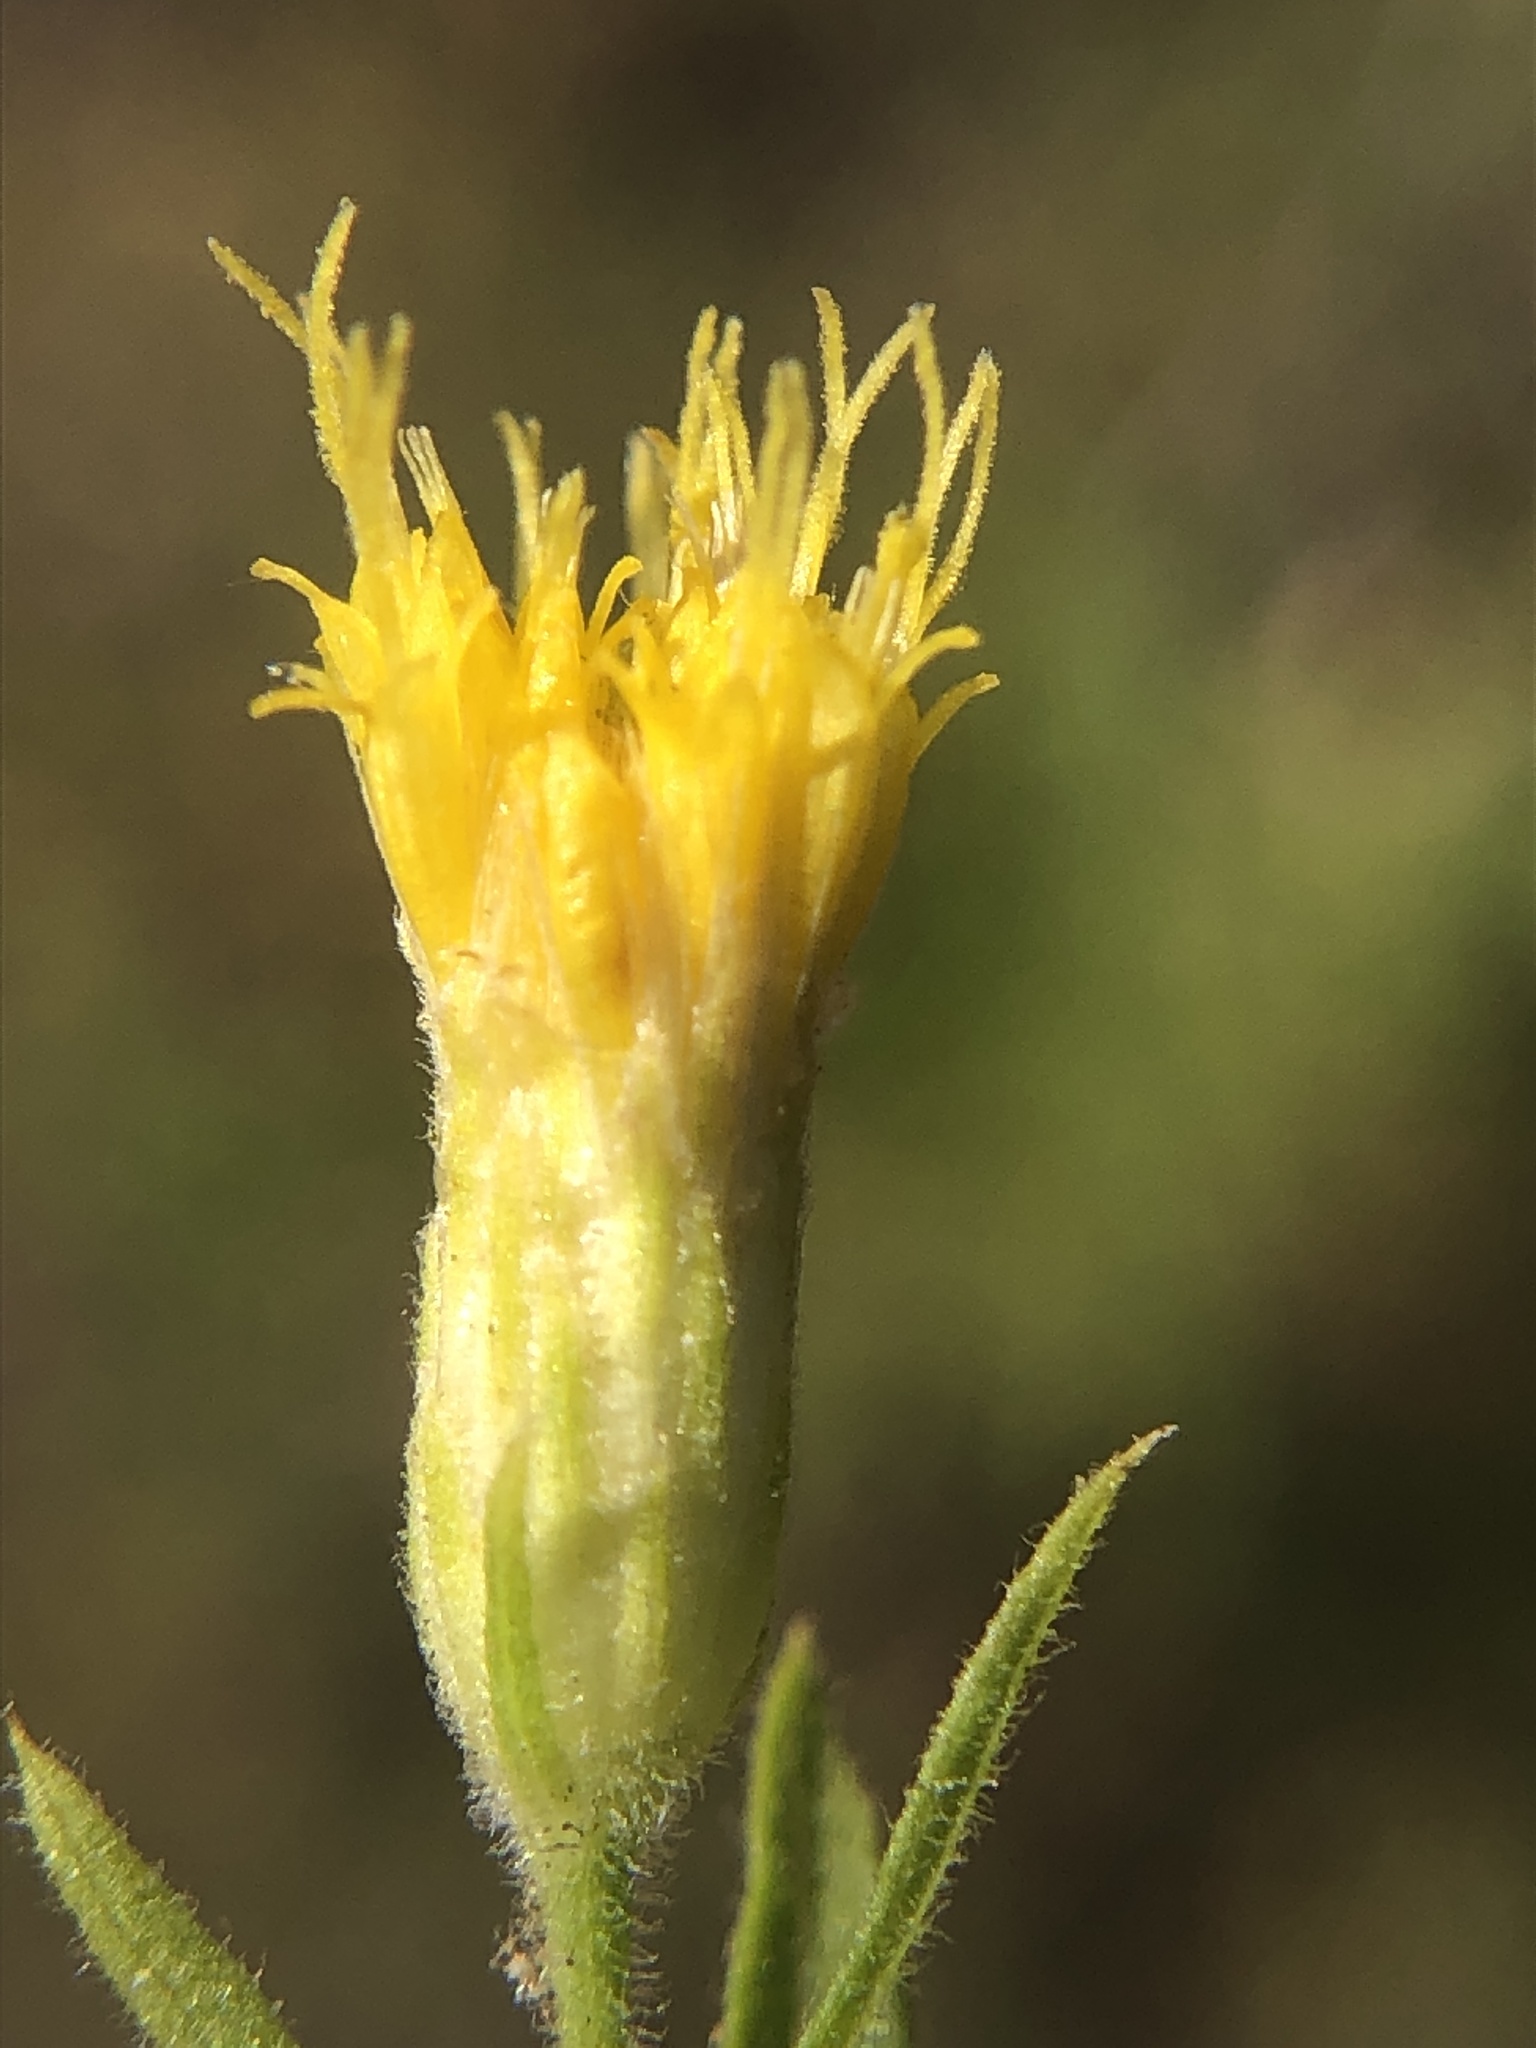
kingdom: Plantae
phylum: Tracheophyta
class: Magnoliopsida
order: Asterales
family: Asteraceae
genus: Eucephalus
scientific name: Eucephalus breweri
